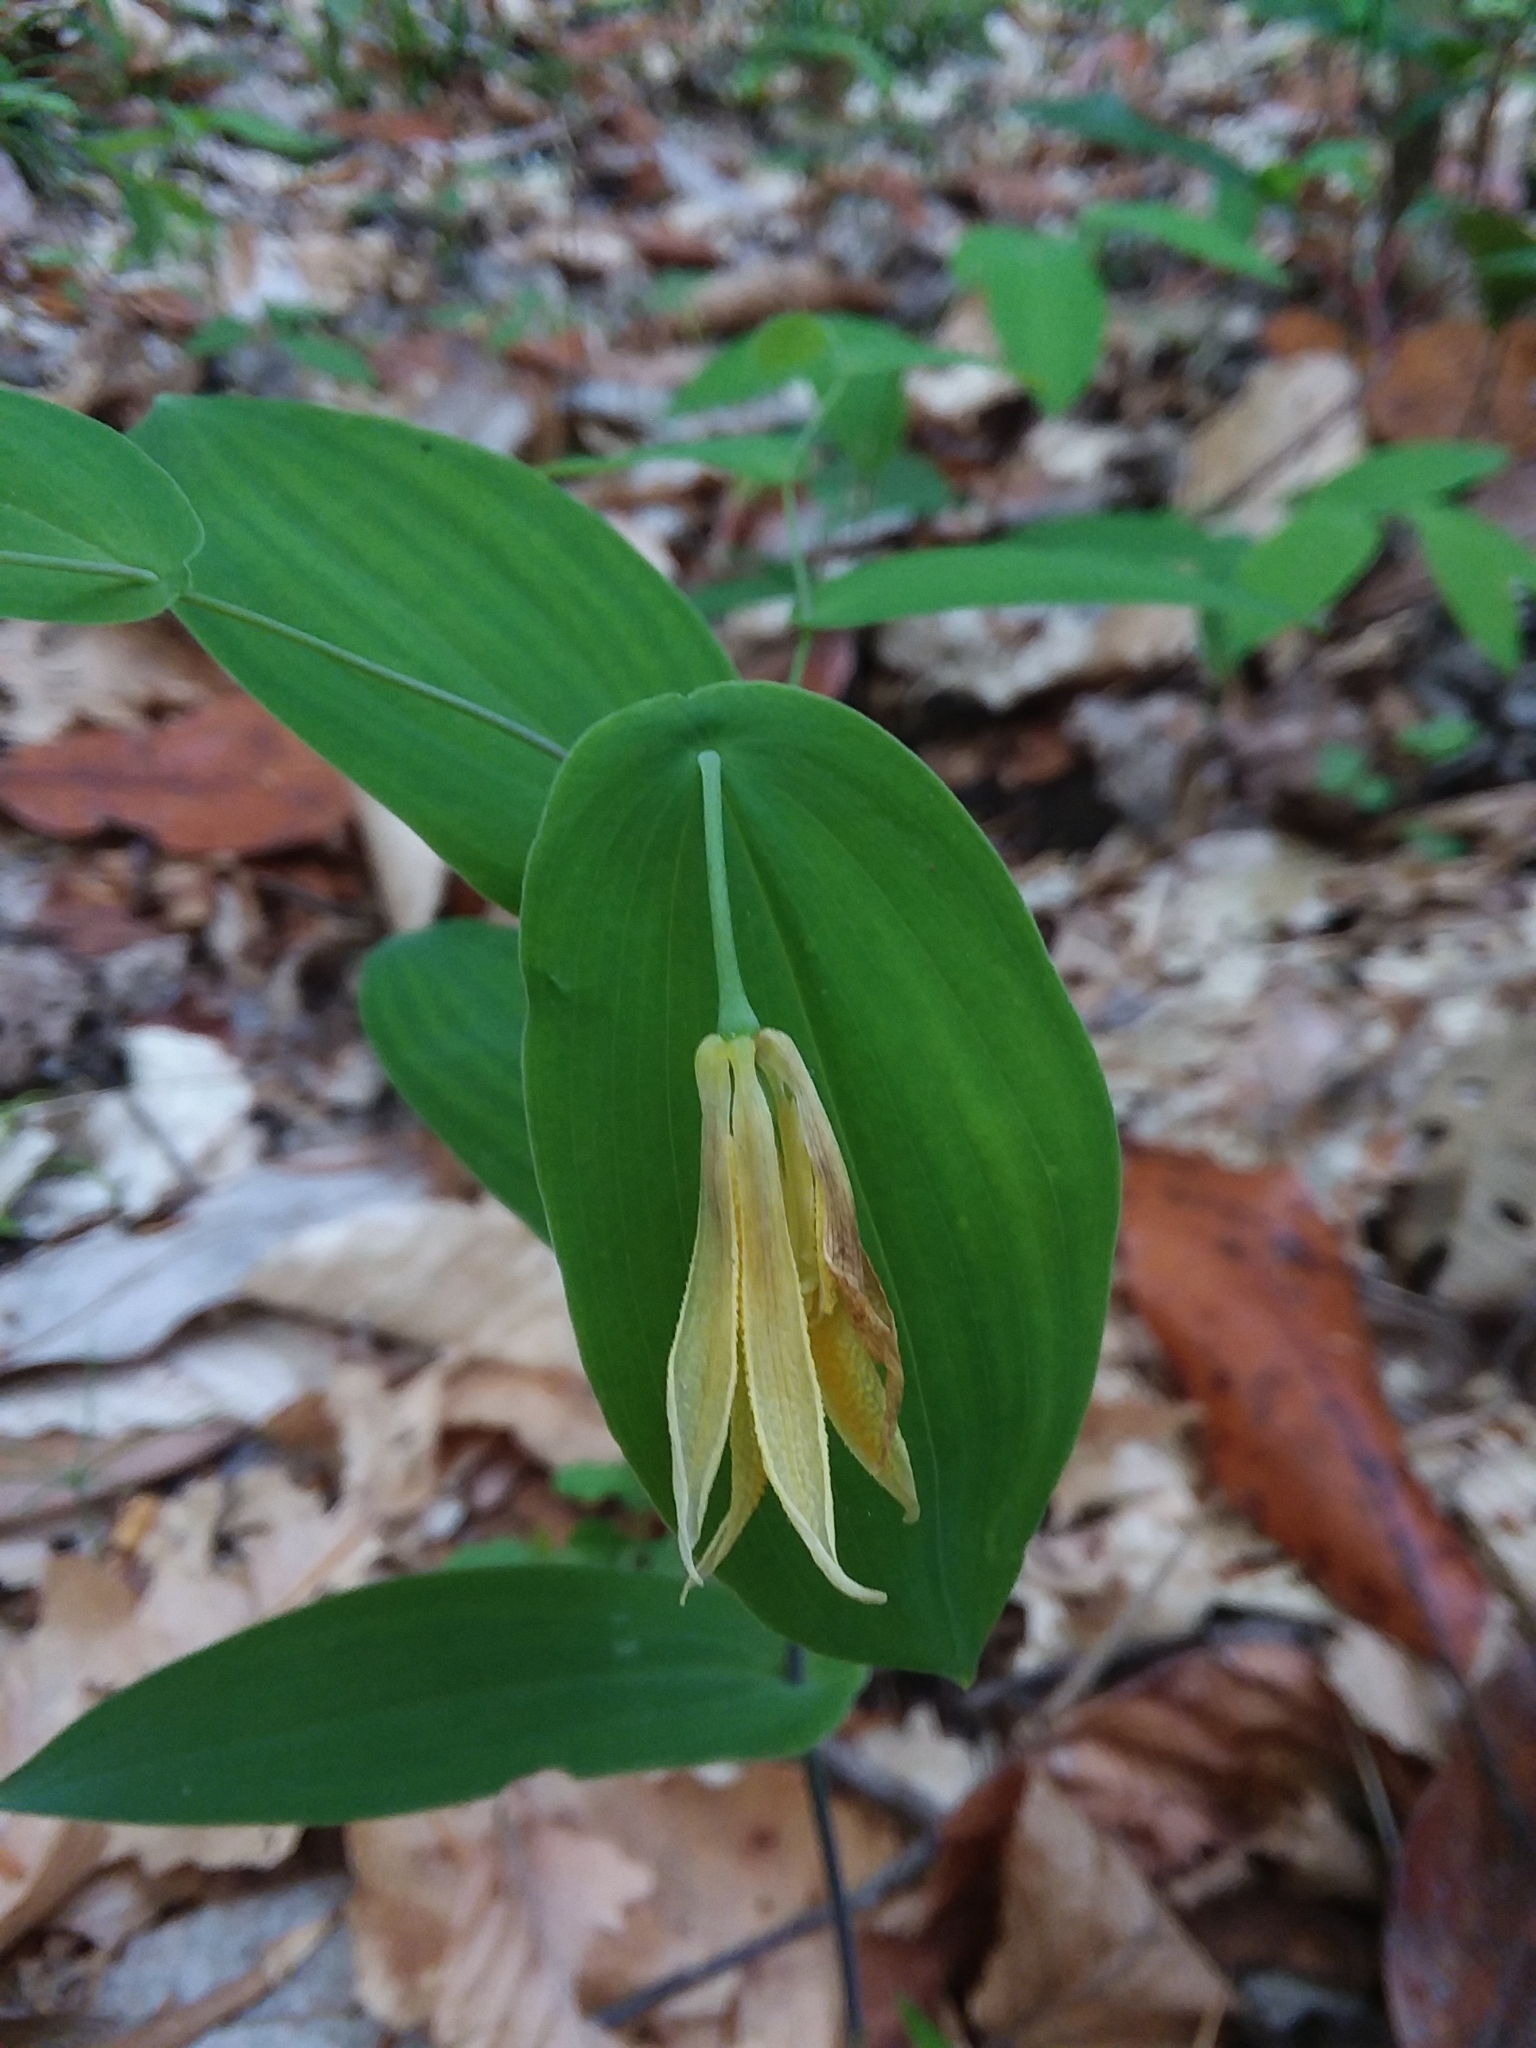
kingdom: Plantae
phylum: Tracheophyta
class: Liliopsida
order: Liliales
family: Colchicaceae
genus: Uvularia
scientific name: Uvularia perfoliata
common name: Perfoliate bellwort
